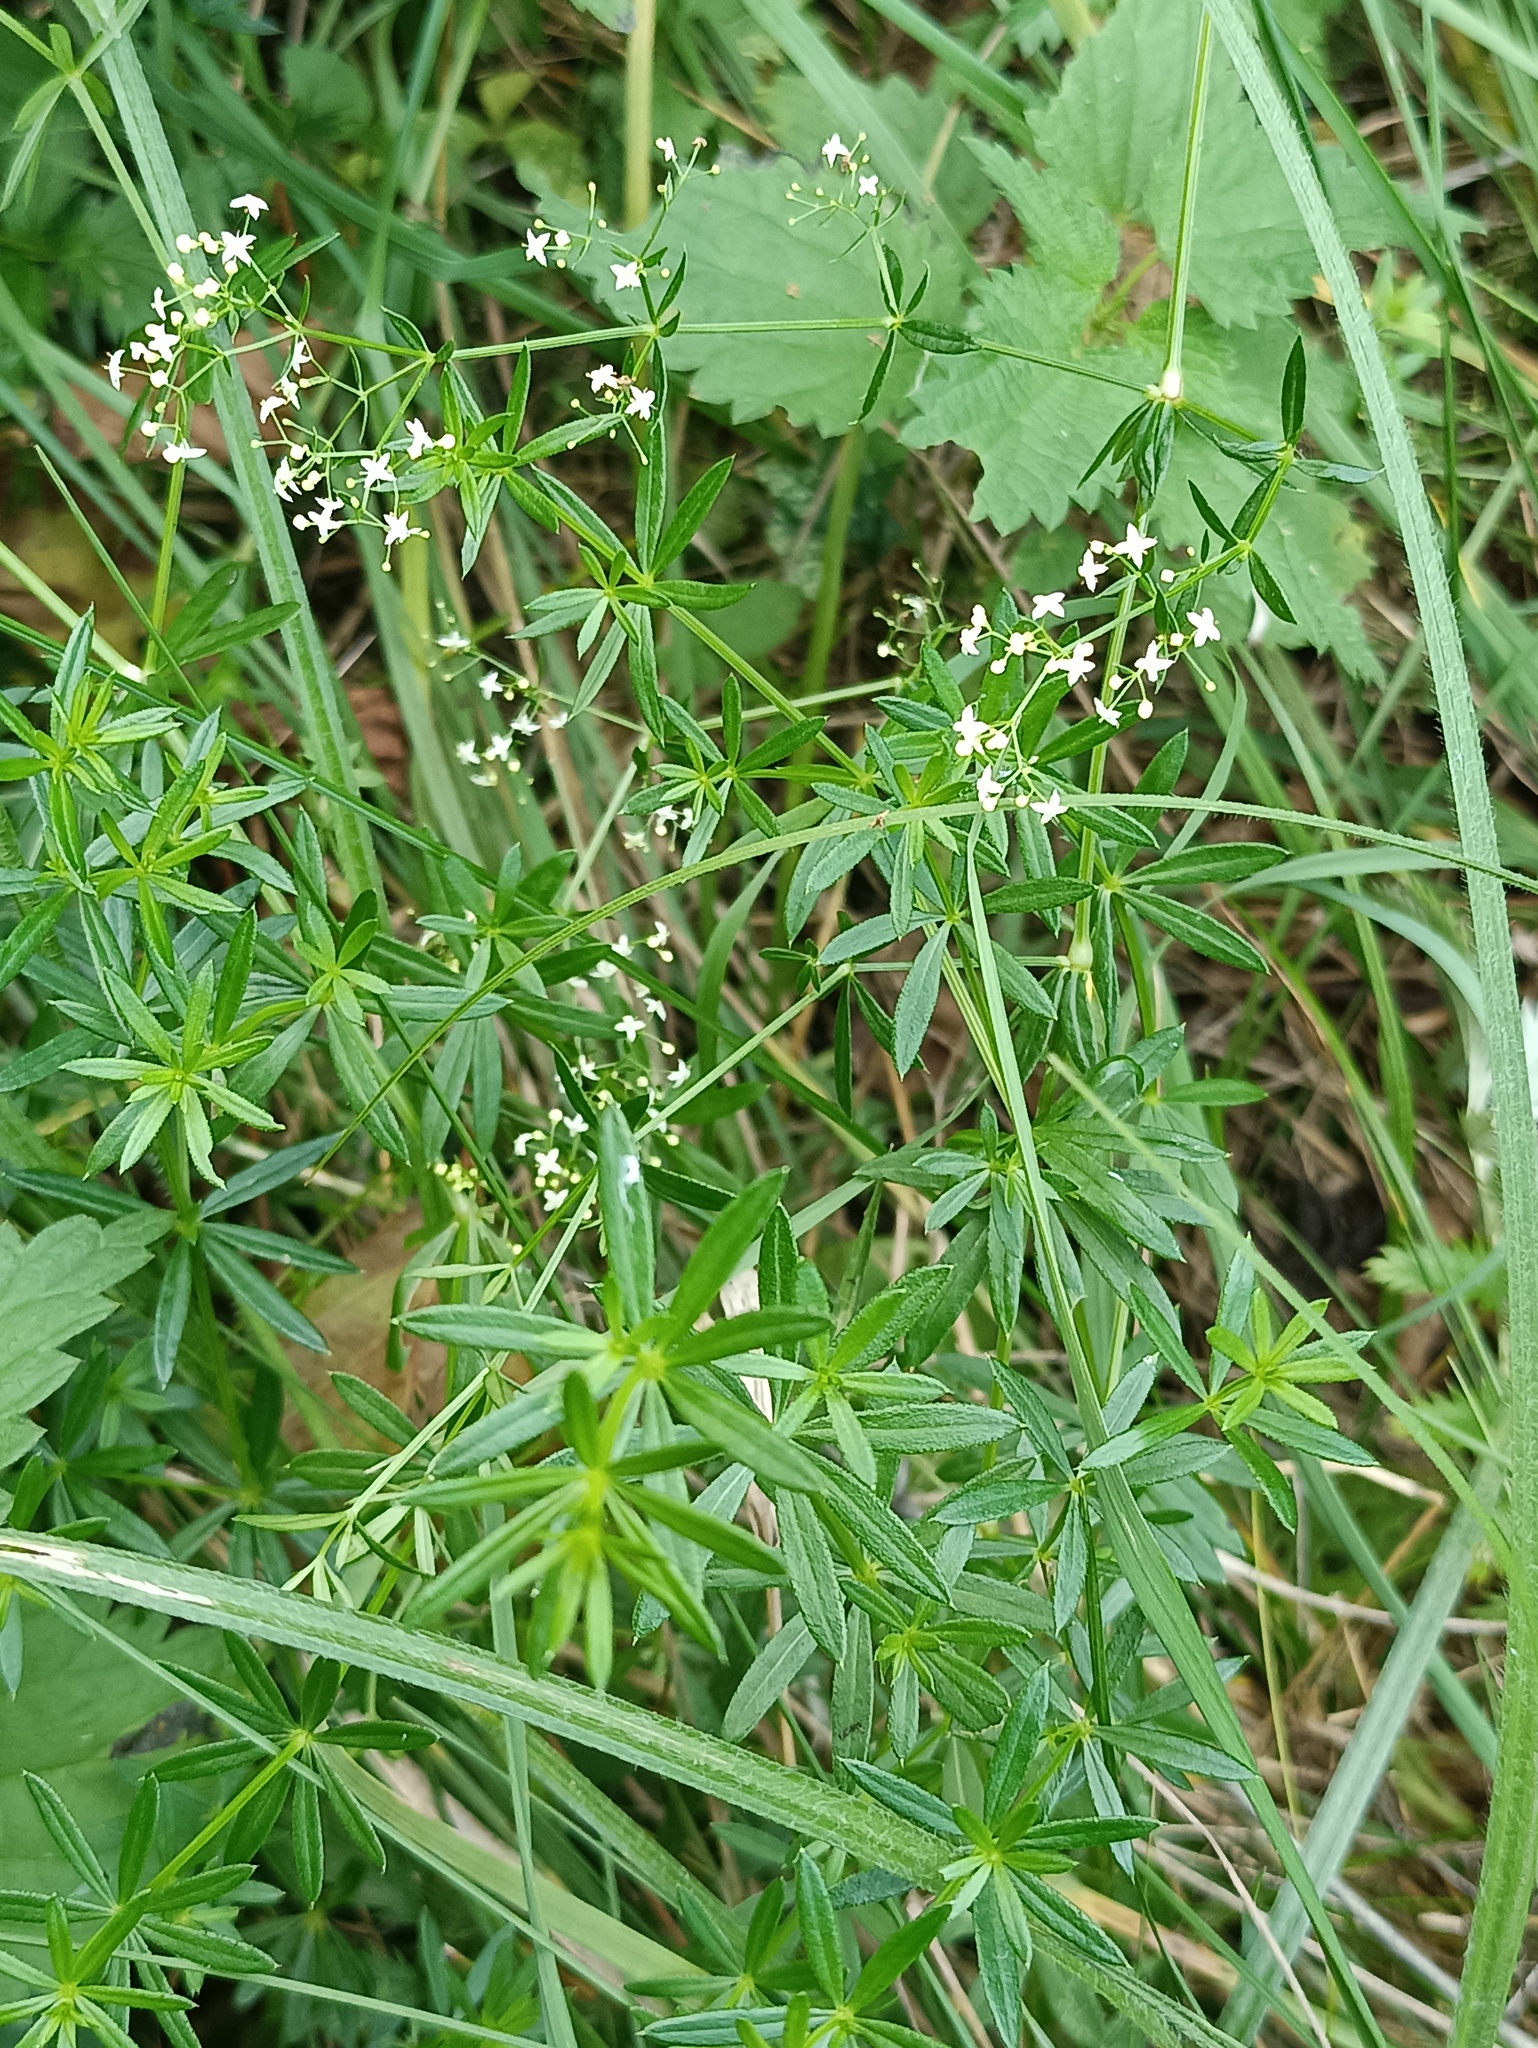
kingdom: Plantae
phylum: Tracheophyta
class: Magnoliopsida
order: Gentianales
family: Rubiaceae
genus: Galium
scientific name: Galium mollugo
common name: Hedge bedstraw
